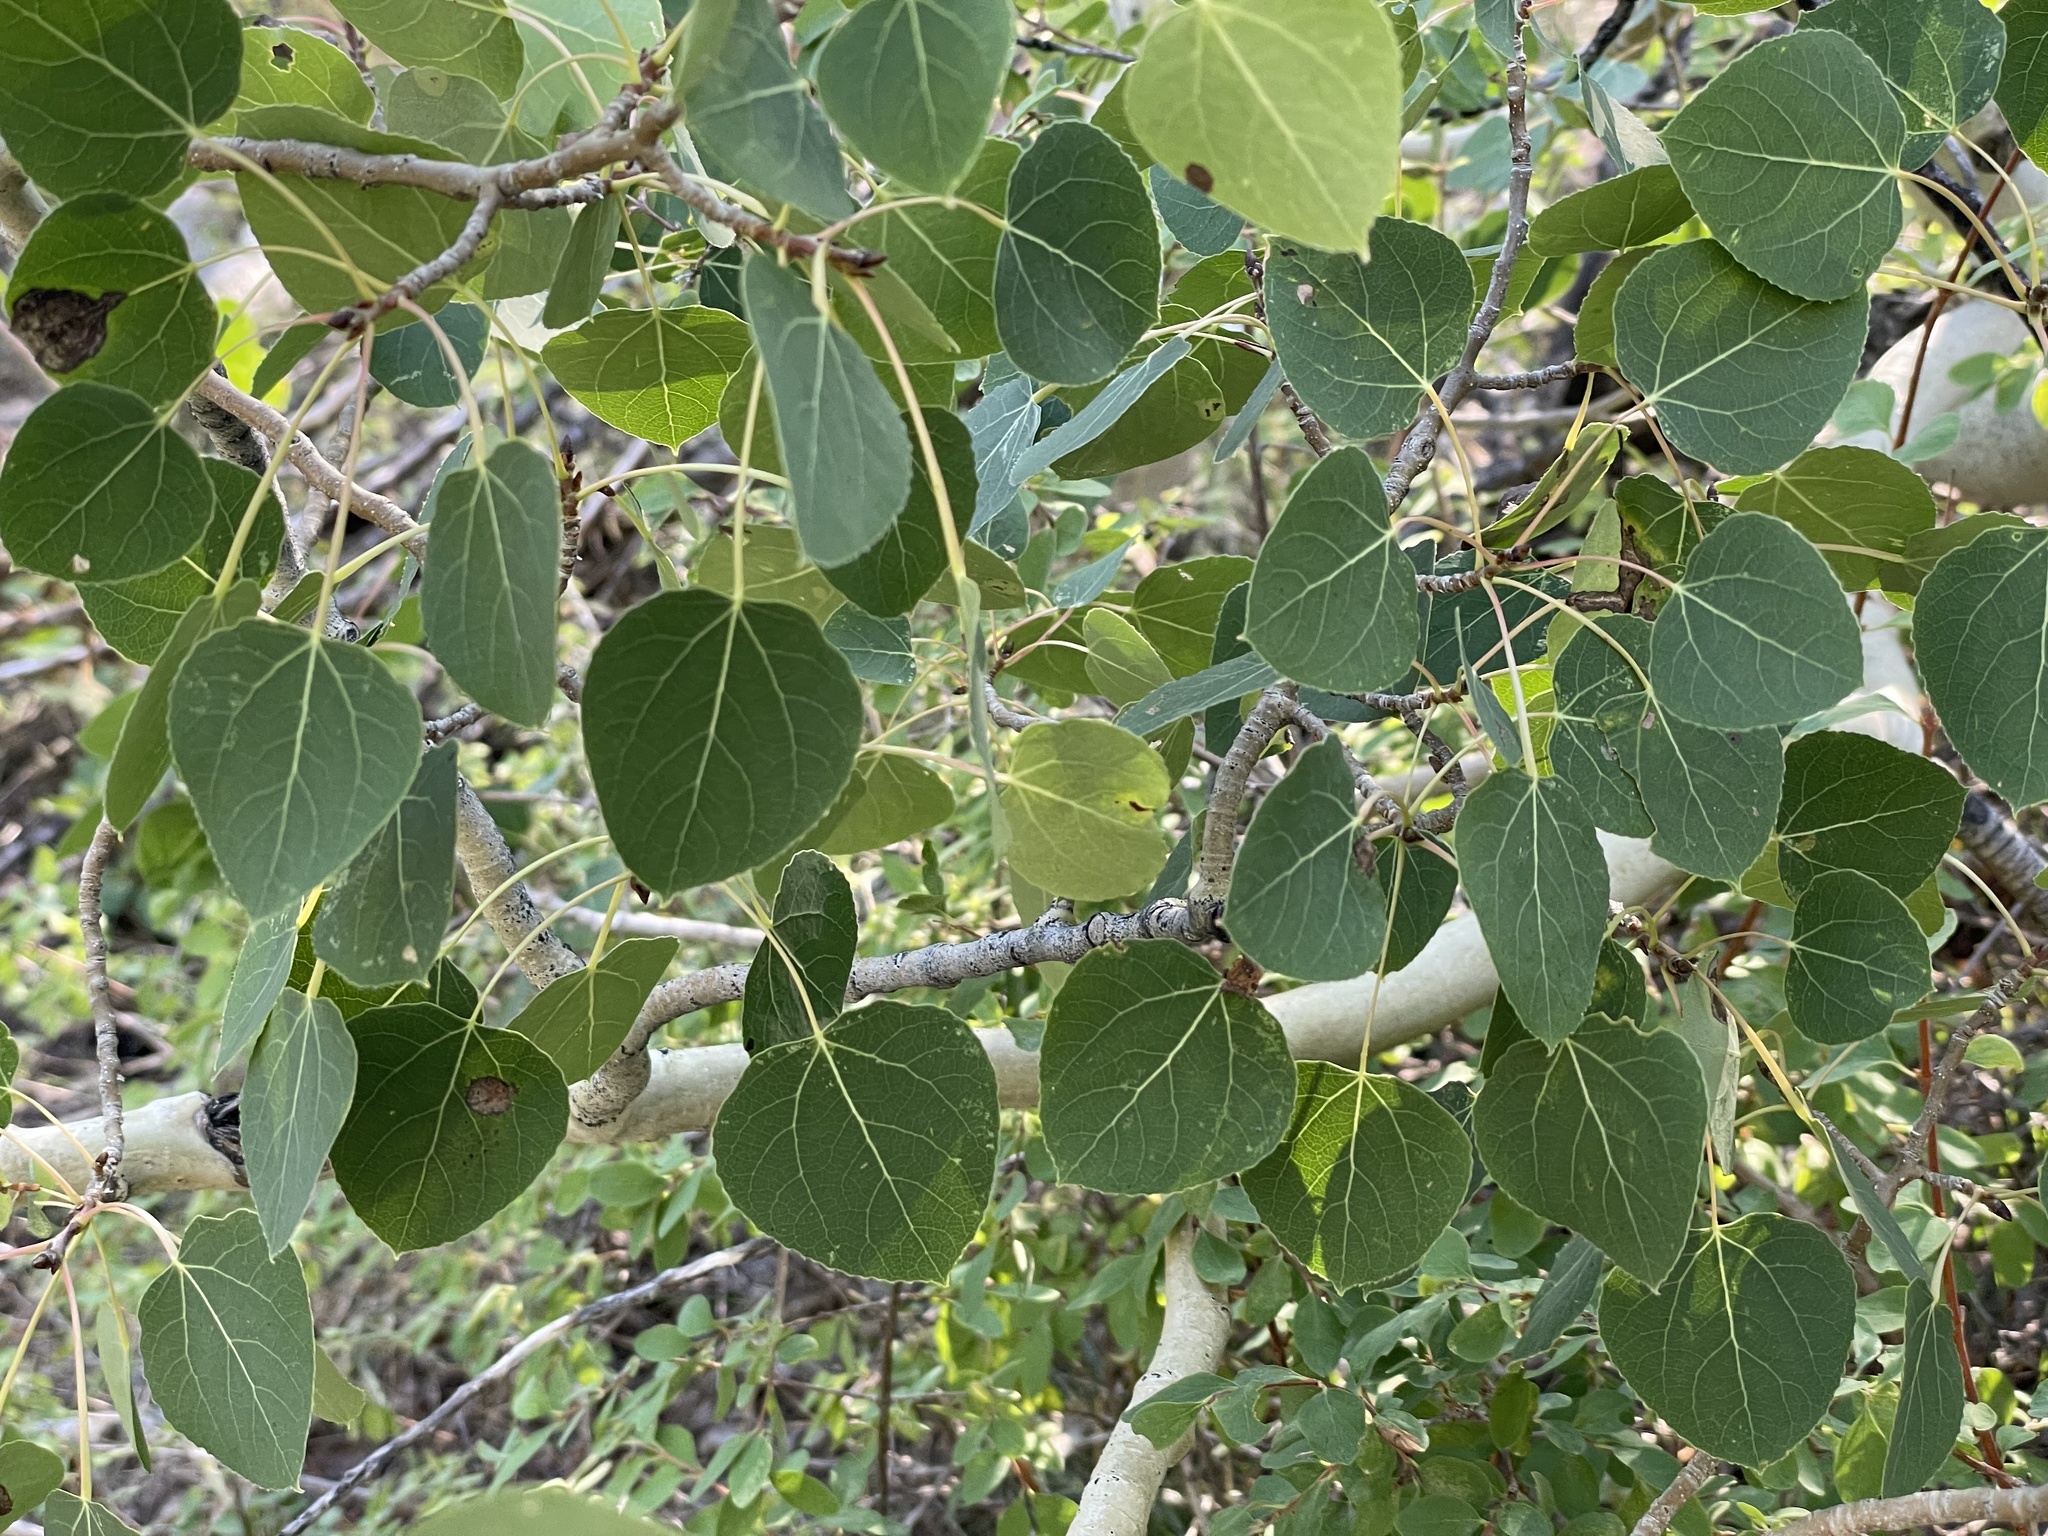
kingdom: Plantae
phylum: Tracheophyta
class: Magnoliopsida
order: Malpighiales
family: Salicaceae
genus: Populus
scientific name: Populus tremuloides
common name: Quaking aspen
